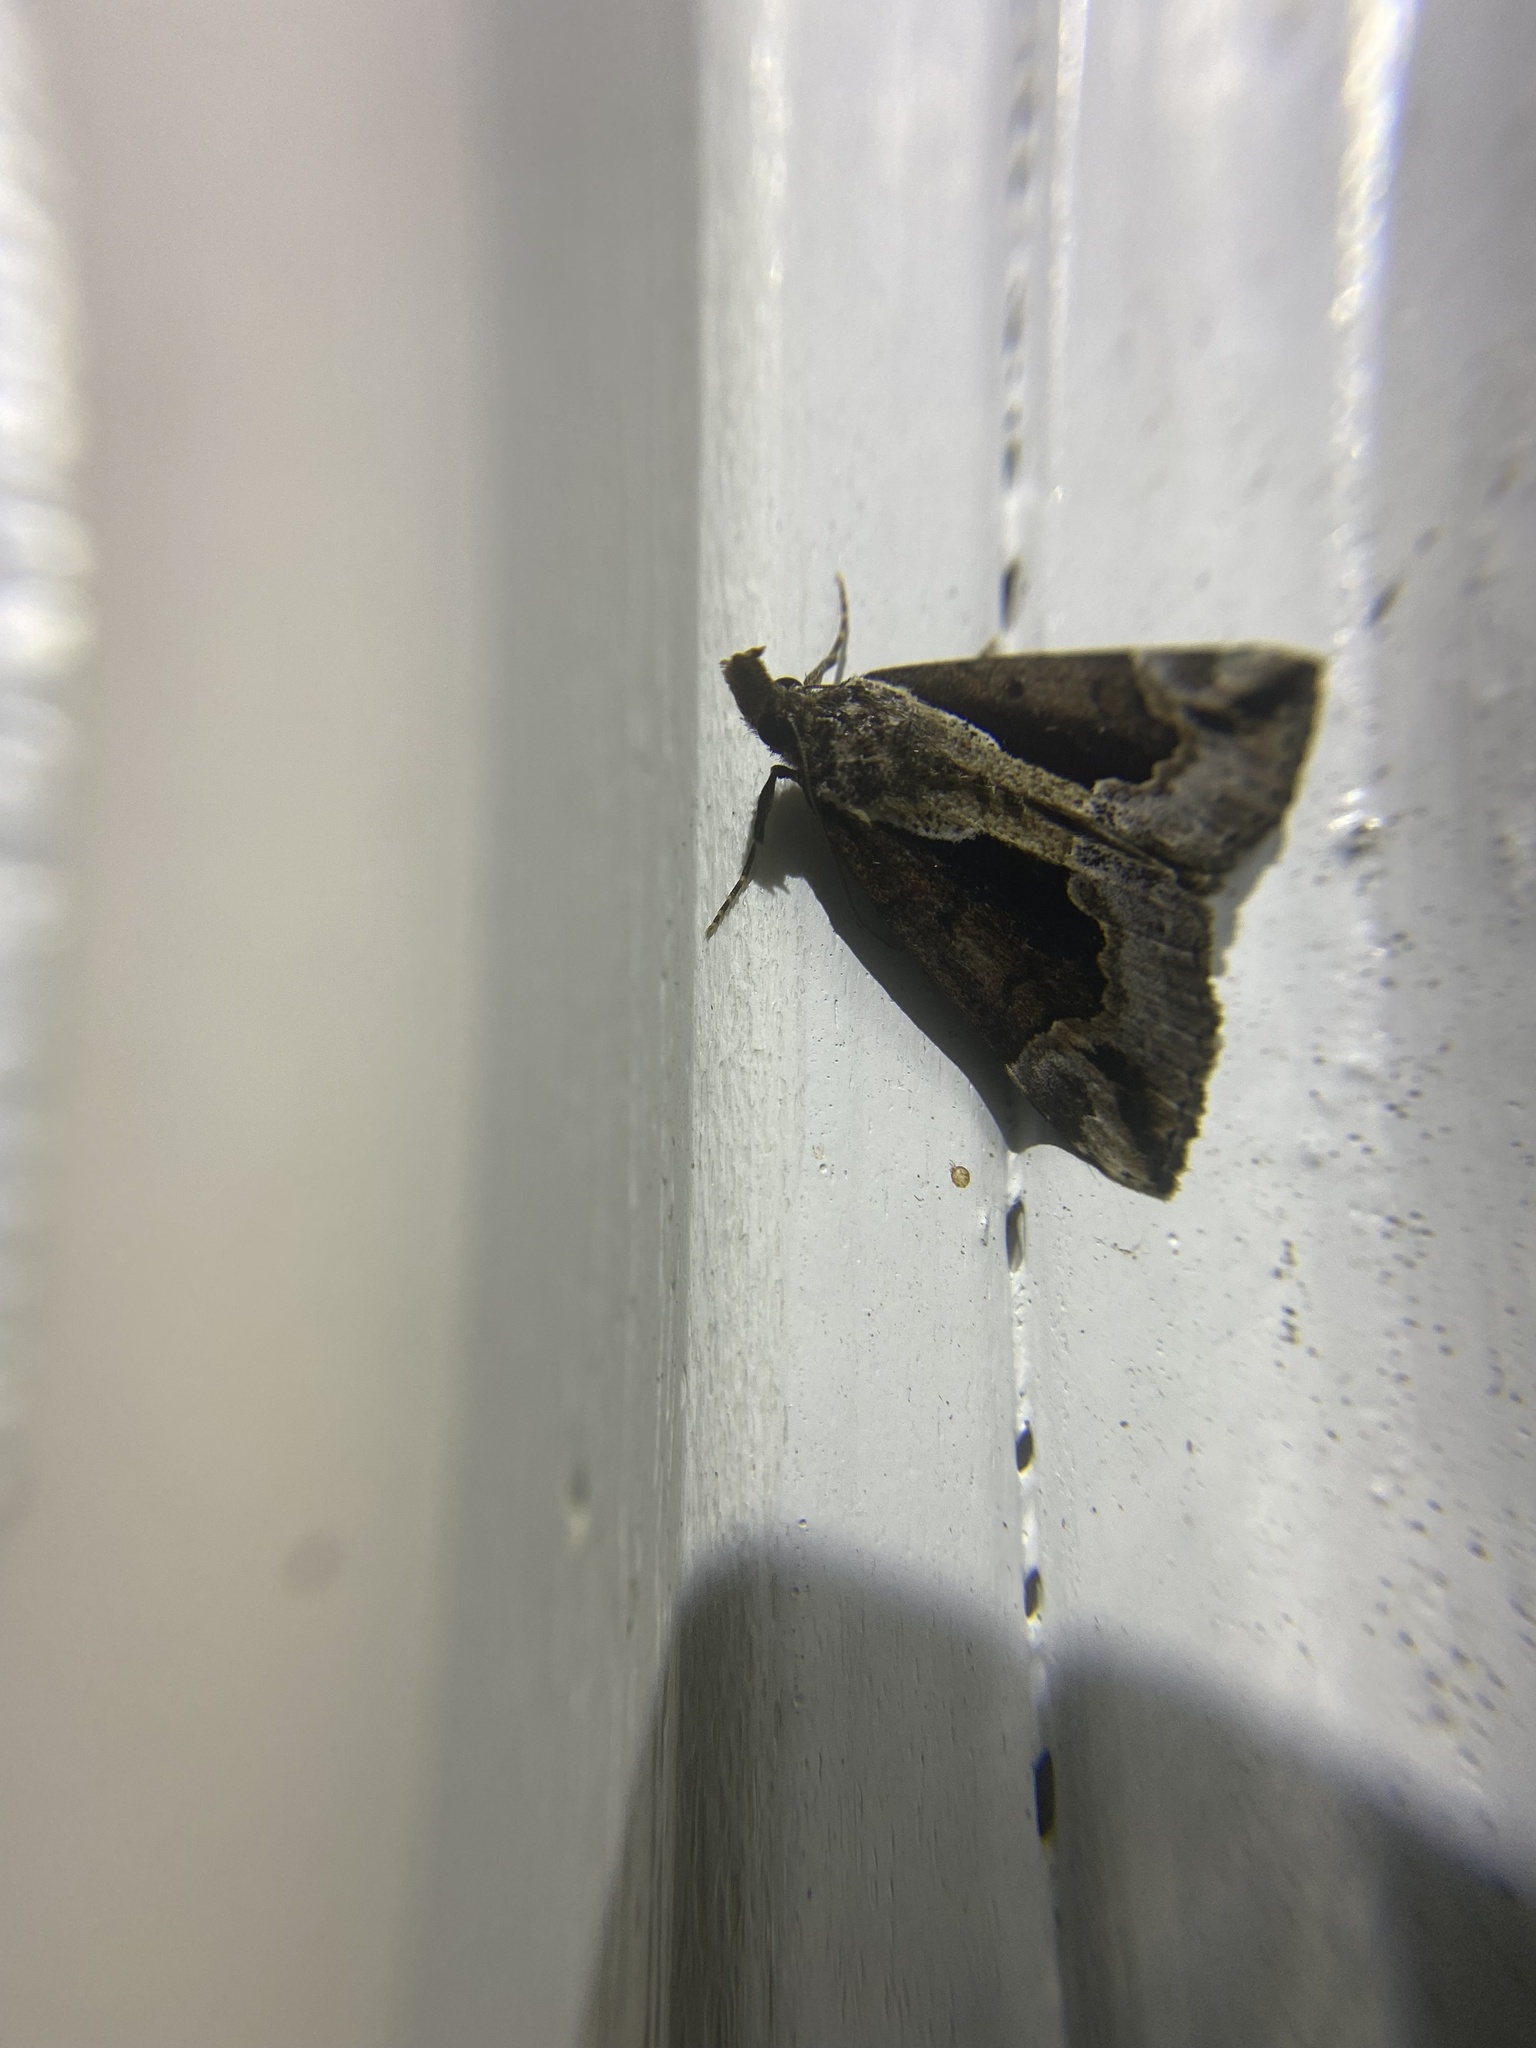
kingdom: Animalia
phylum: Arthropoda
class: Insecta
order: Lepidoptera
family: Erebidae
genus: Hypena
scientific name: Hypena baltimoralis
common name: Baltimore snout
